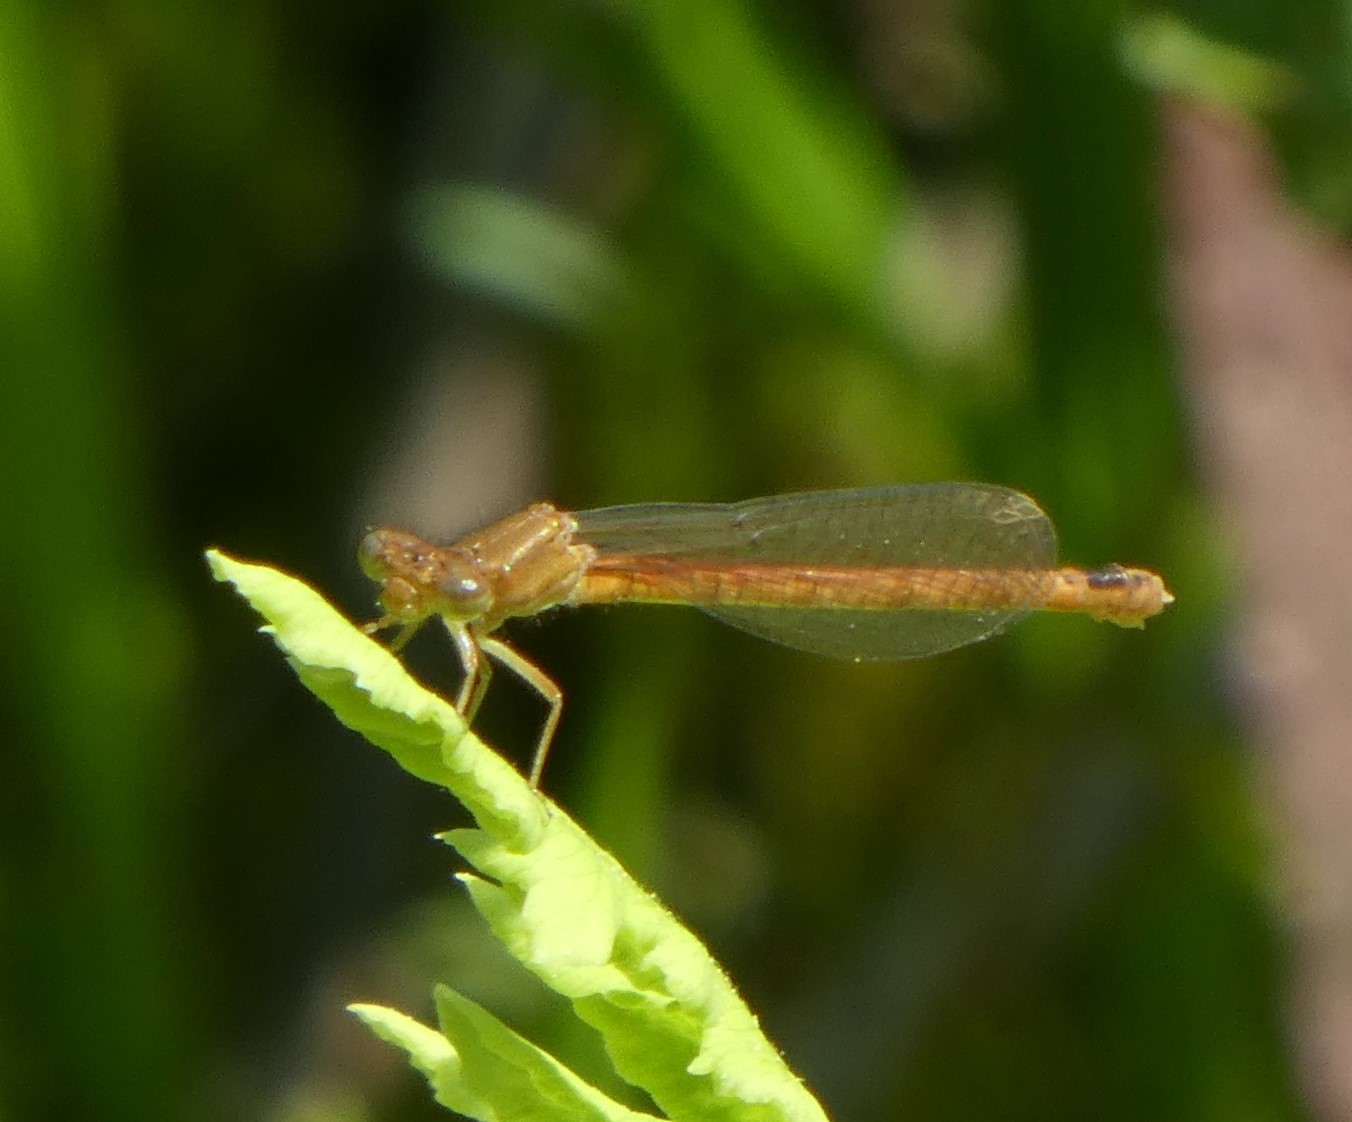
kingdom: Animalia
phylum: Arthropoda
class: Insecta
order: Odonata
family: Coenagrionidae
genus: Amphiagrion
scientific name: Amphiagrion saucium
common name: Eastern red damsel
